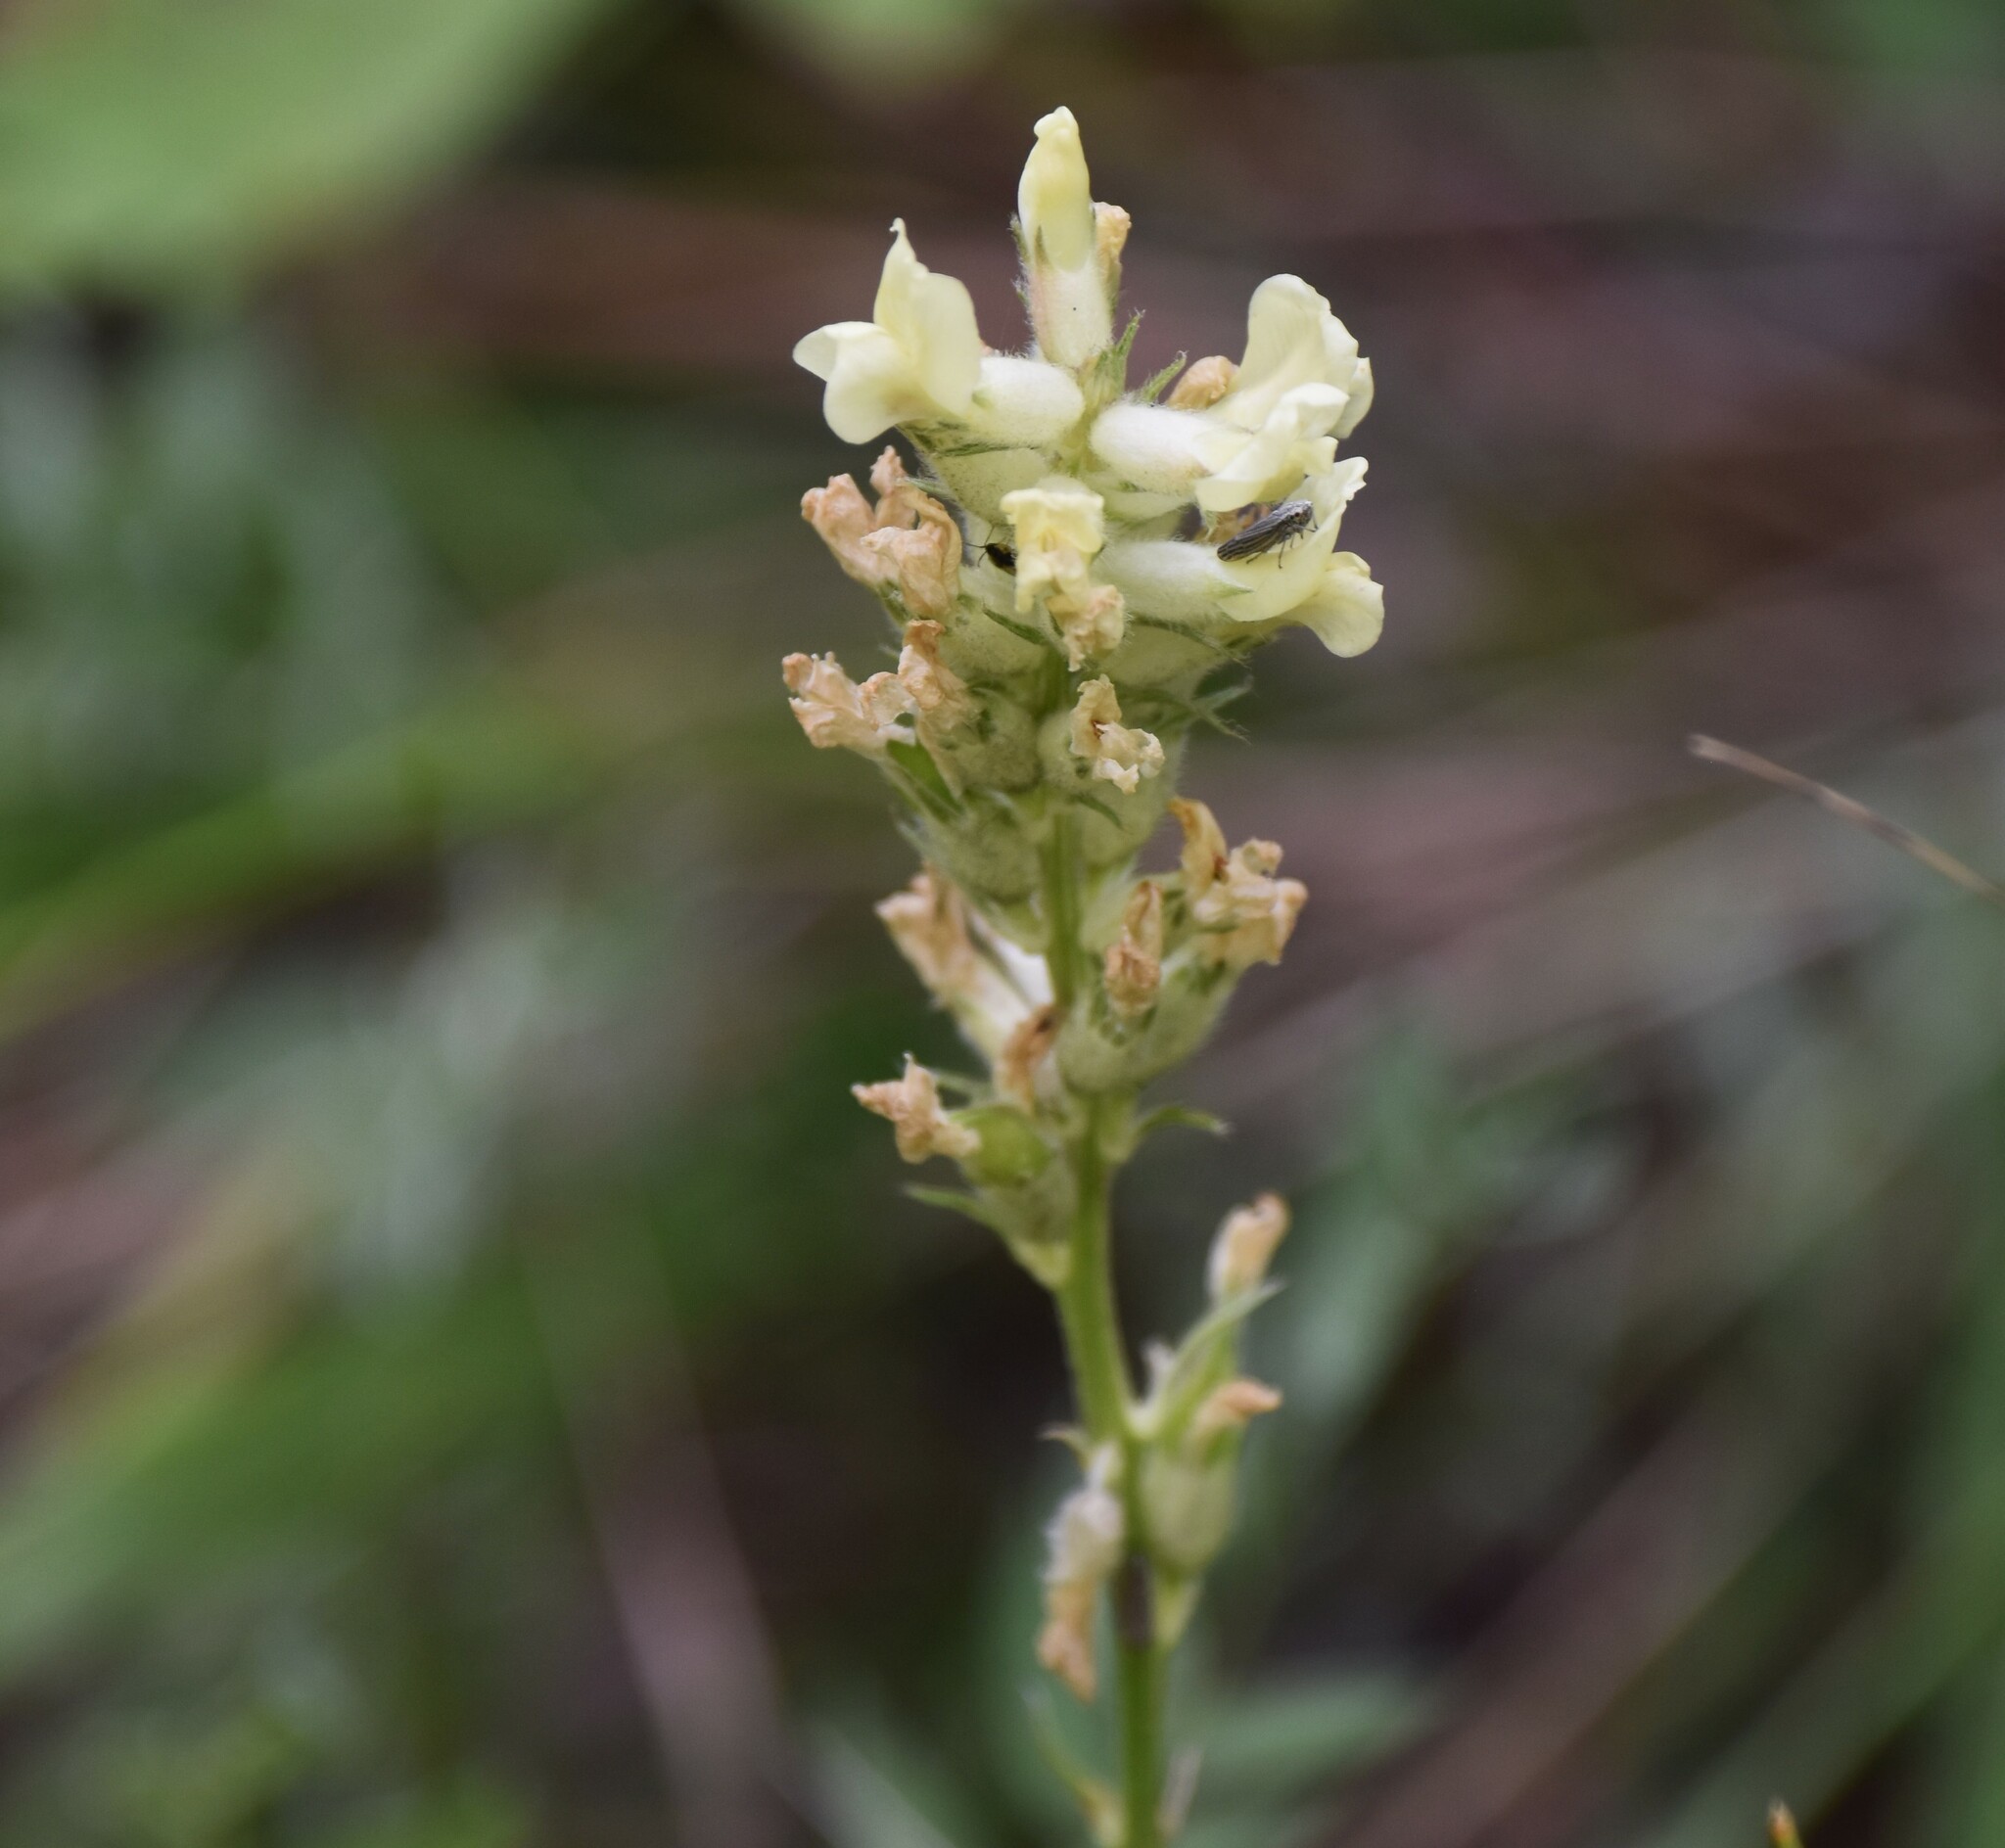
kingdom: Plantae
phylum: Tracheophyta
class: Magnoliopsida
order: Fabales
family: Fabaceae
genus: Oxytropis
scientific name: Oxytropis campestris
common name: Field locoweed
